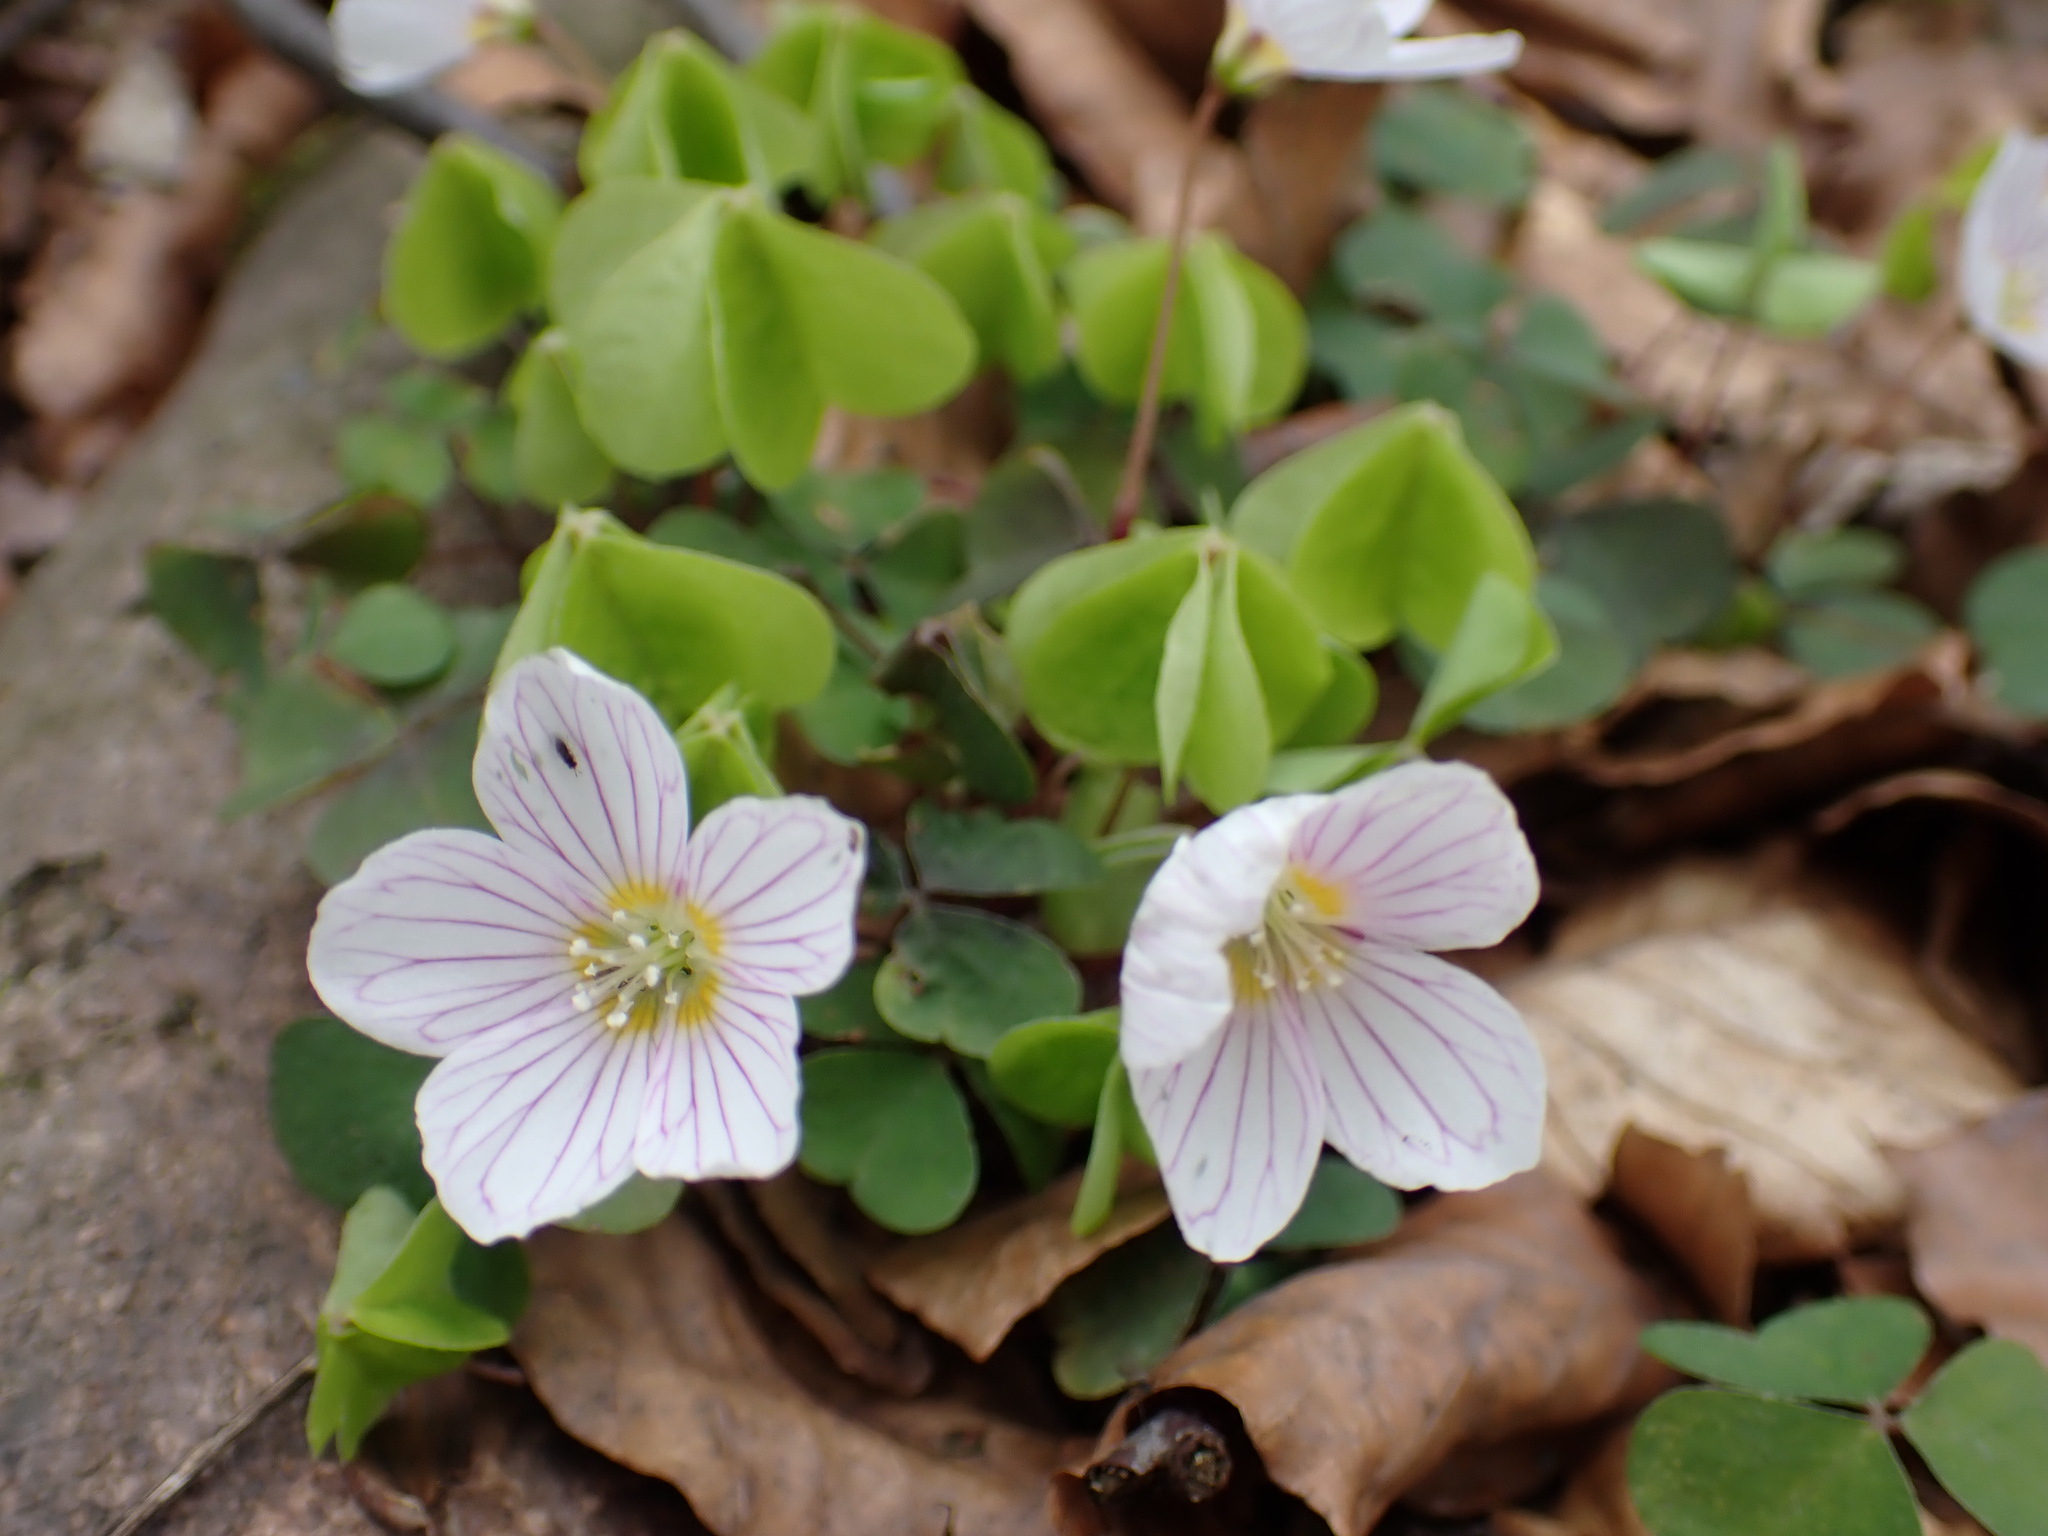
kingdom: Plantae
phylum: Tracheophyta
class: Magnoliopsida
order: Oxalidales
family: Oxalidaceae
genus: Oxalis
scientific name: Oxalis acetosella
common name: Wood-sorrel
